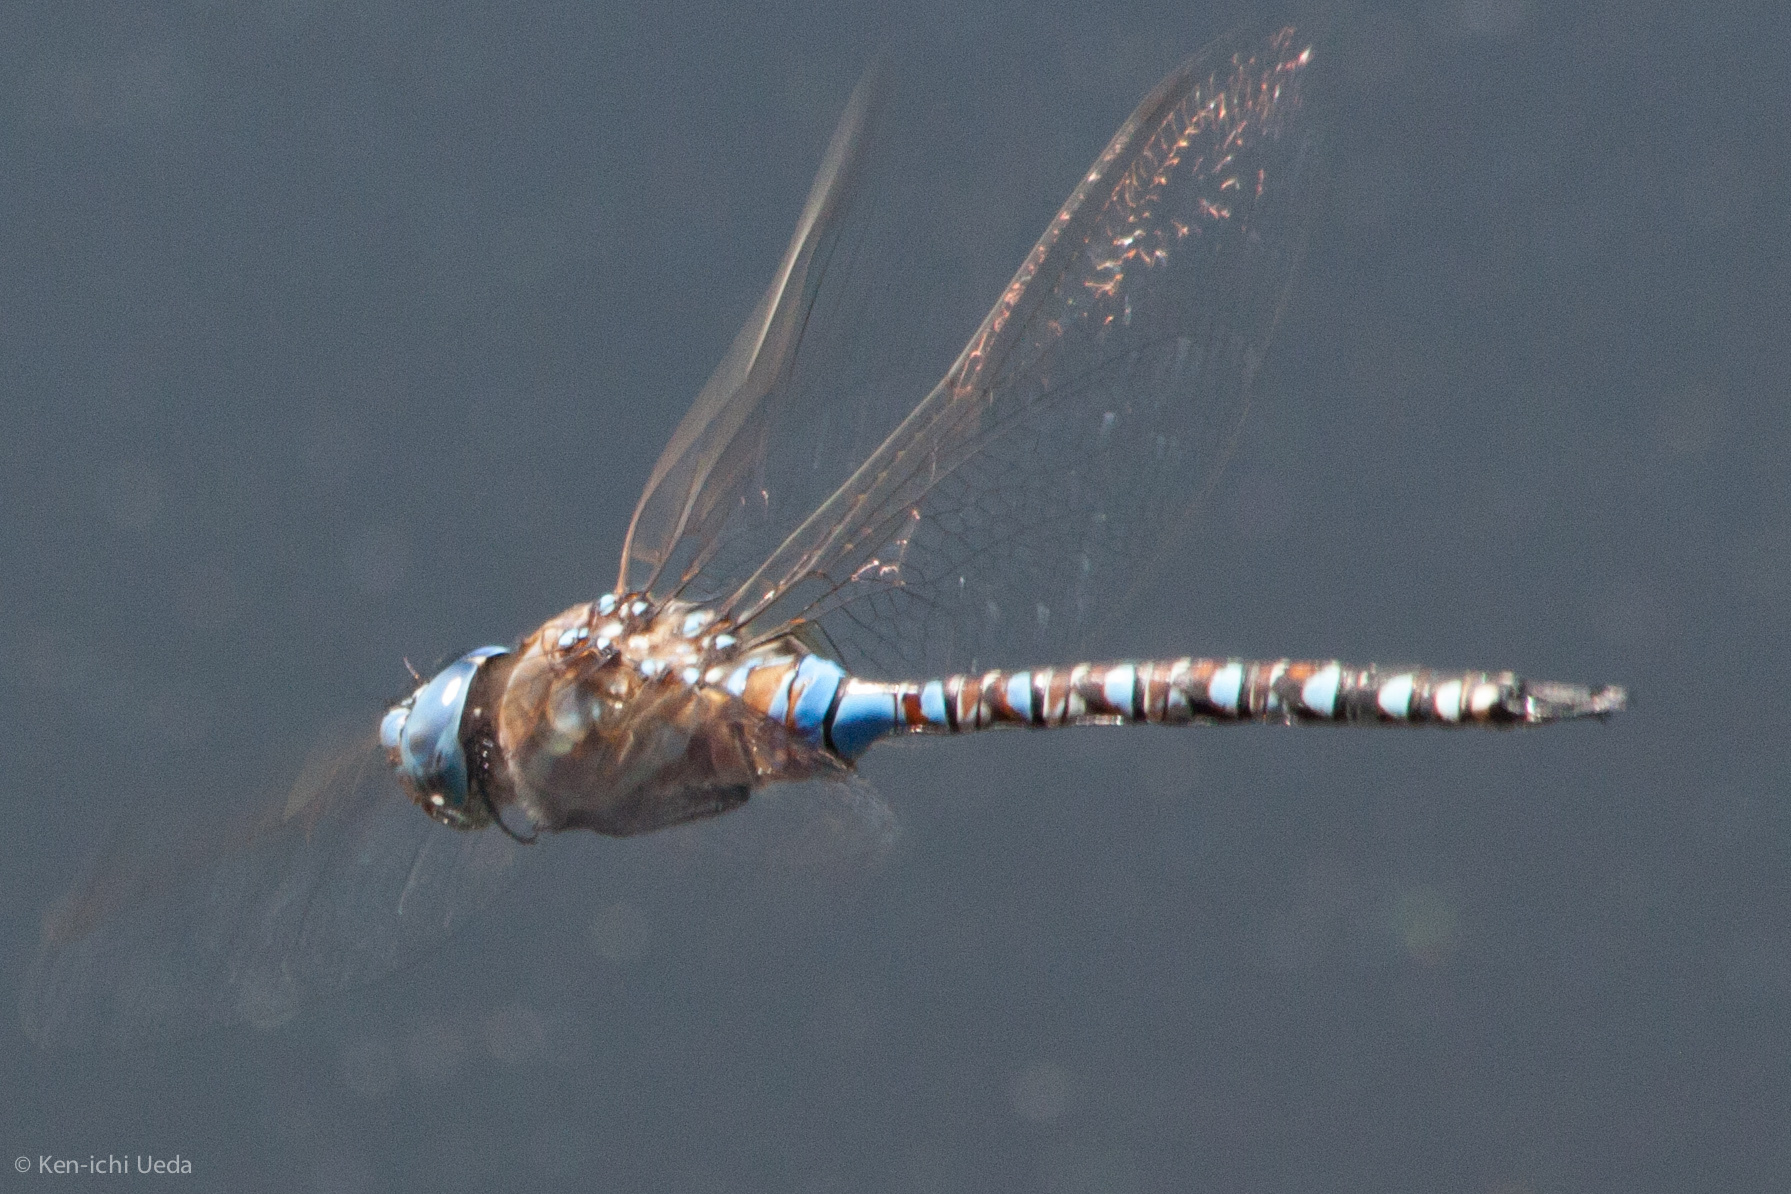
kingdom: Animalia
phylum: Arthropoda
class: Insecta
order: Odonata
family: Aeshnidae
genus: Rhionaeschna
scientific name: Rhionaeschna multicolor
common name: Blue-eyed darner
